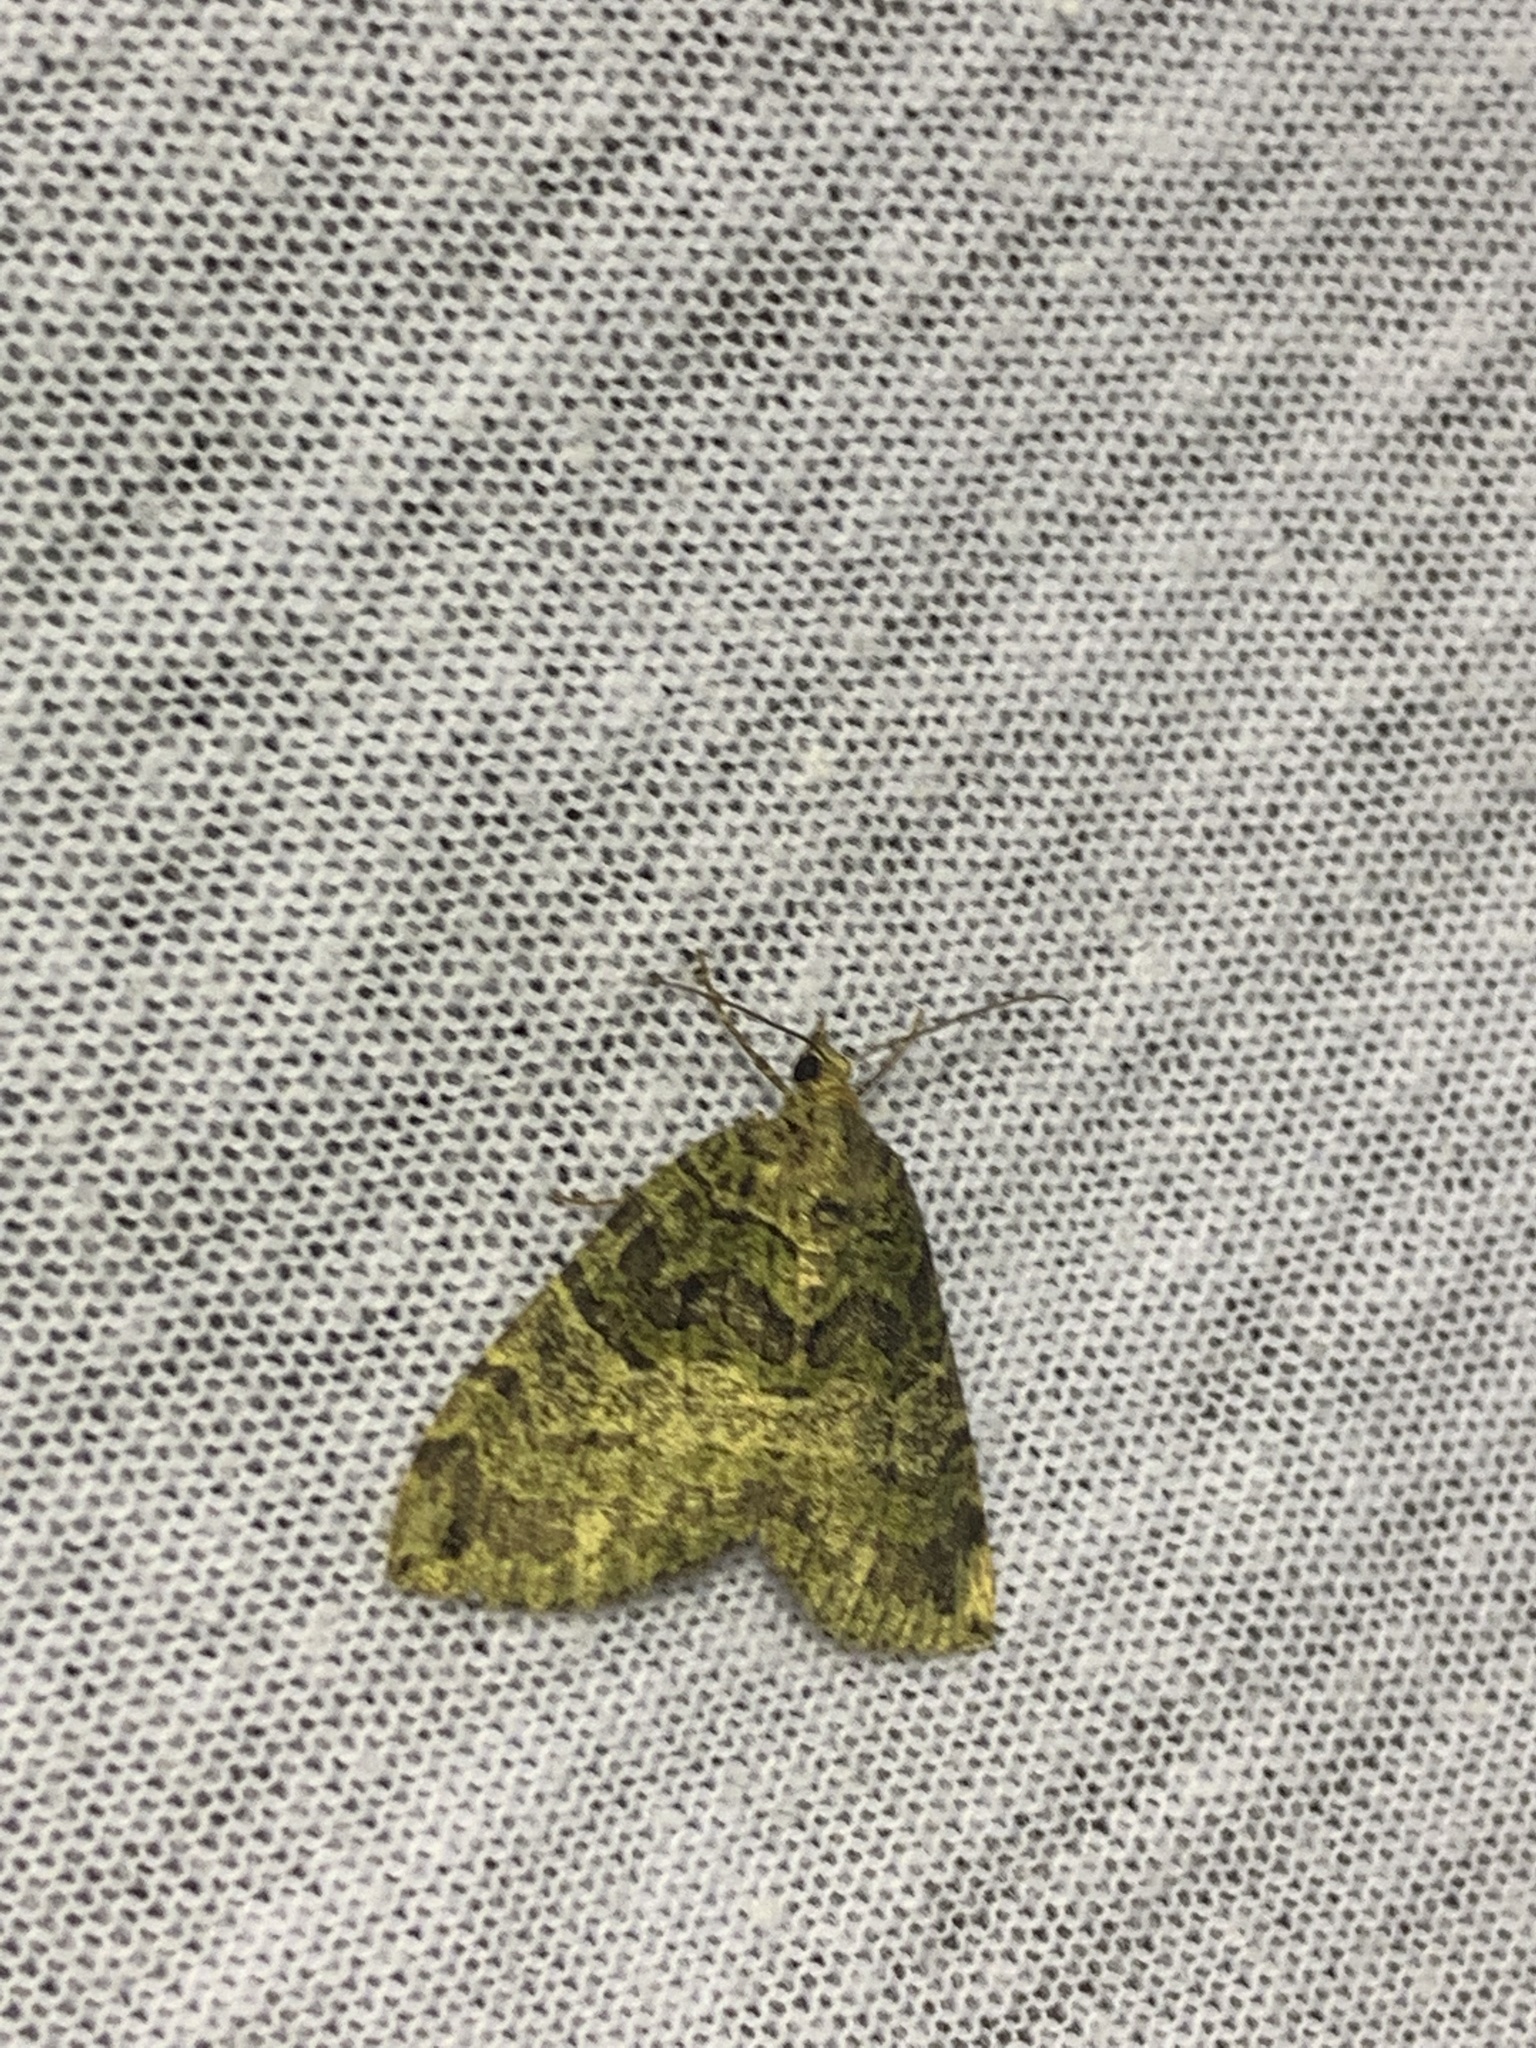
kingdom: Animalia
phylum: Arthropoda
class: Insecta
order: Lepidoptera
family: Geometridae
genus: Hydriomena
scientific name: Hydriomena furcata
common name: July highflyer
